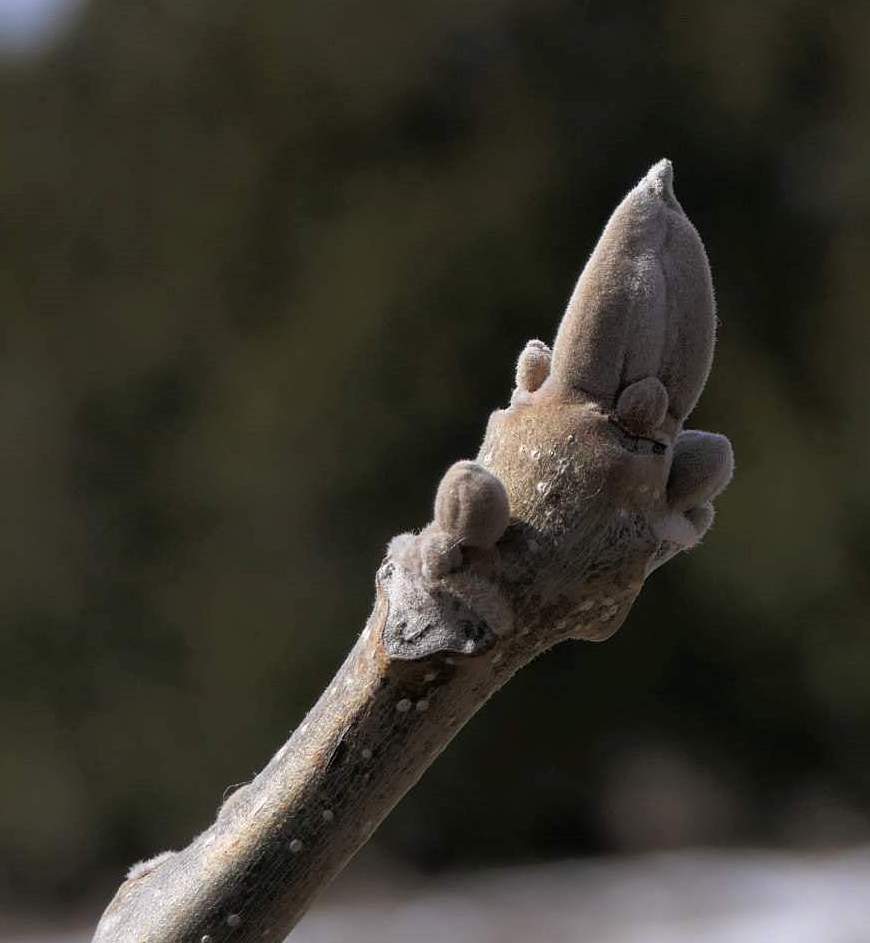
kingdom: Plantae
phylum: Tracheophyta
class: Magnoliopsida
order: Fagales
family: Juglandaceae
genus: Juglans
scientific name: Juglans nigra
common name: Black walnut
